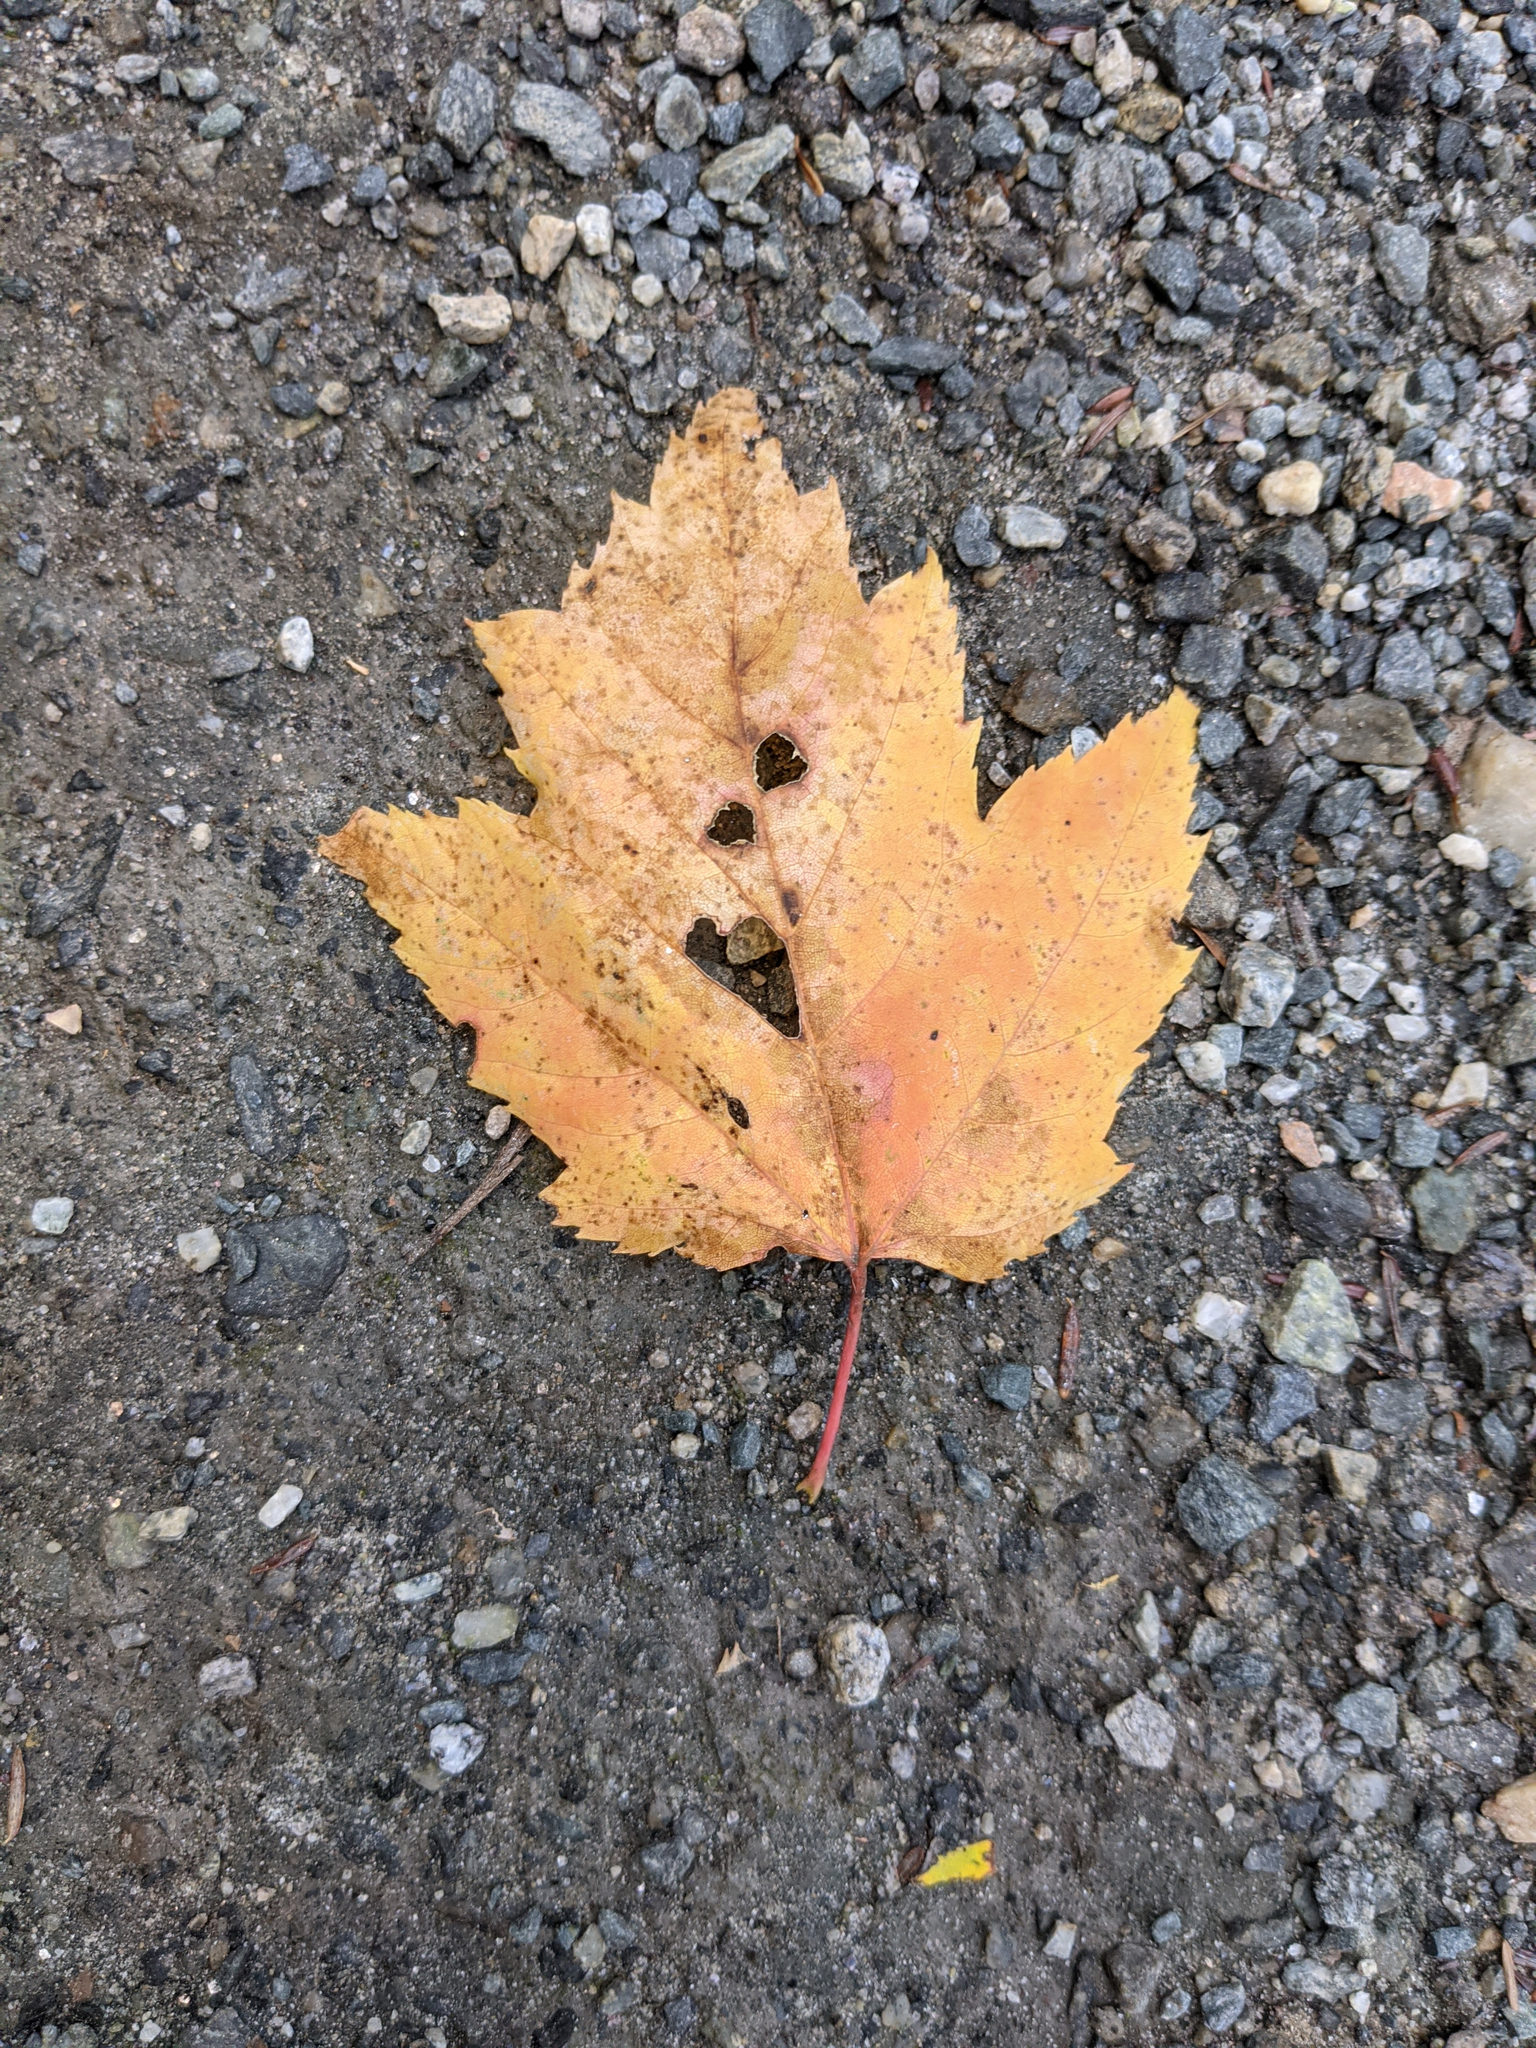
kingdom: Plantae
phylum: Tracheophyta
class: Magnoliopsida
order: Sapindales
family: Sapindaceae
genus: Acer
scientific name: Acer rubrum
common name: Red maple
